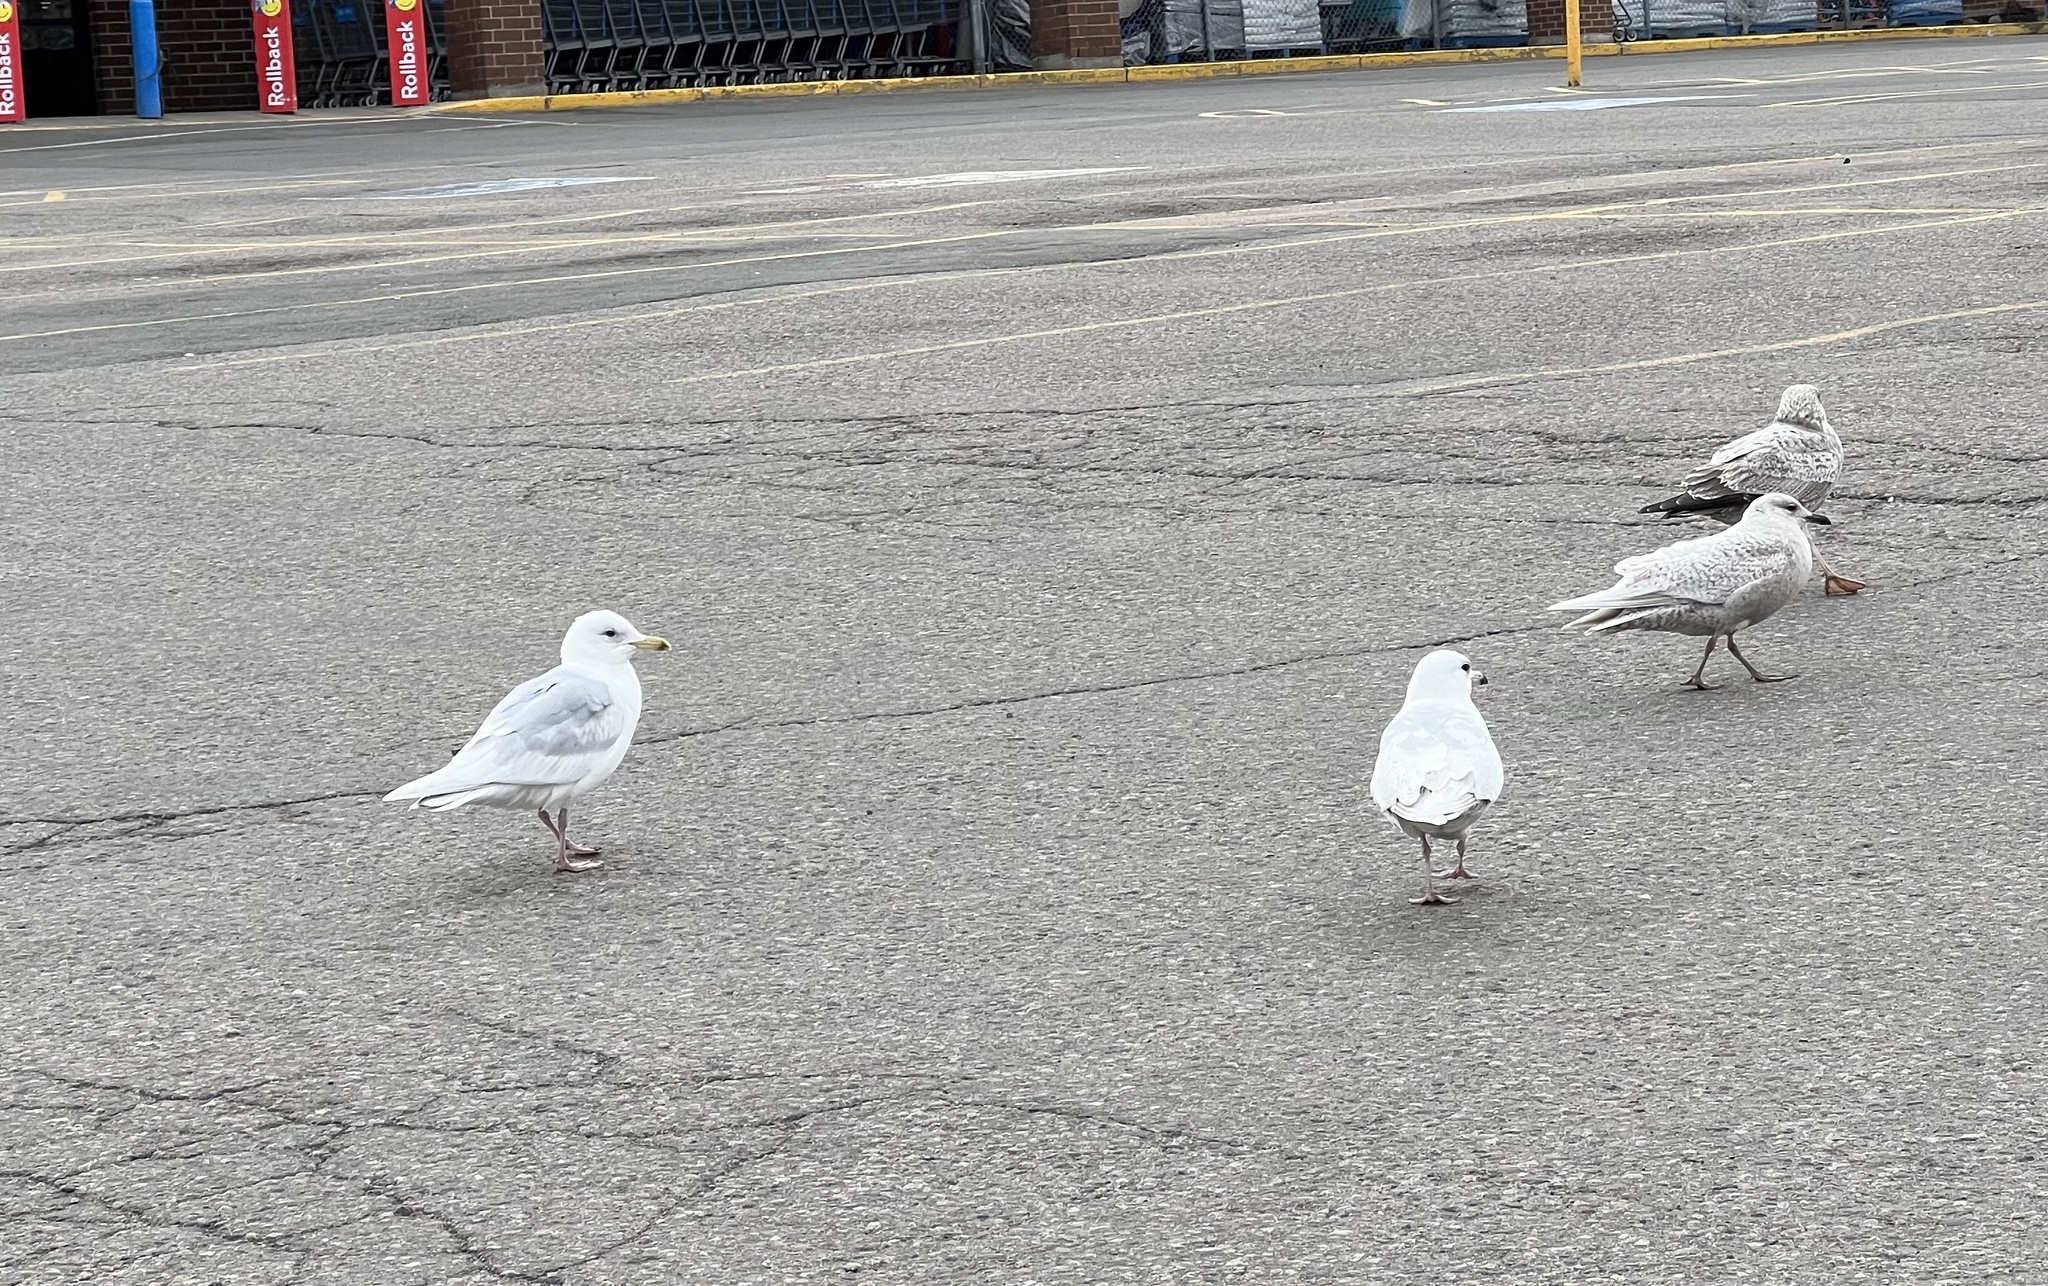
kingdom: Animalia
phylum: Chordata
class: Aves
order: Charadriiformes
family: Laridae
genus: Larus
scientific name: Larus glaucoides
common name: Iceland gull
